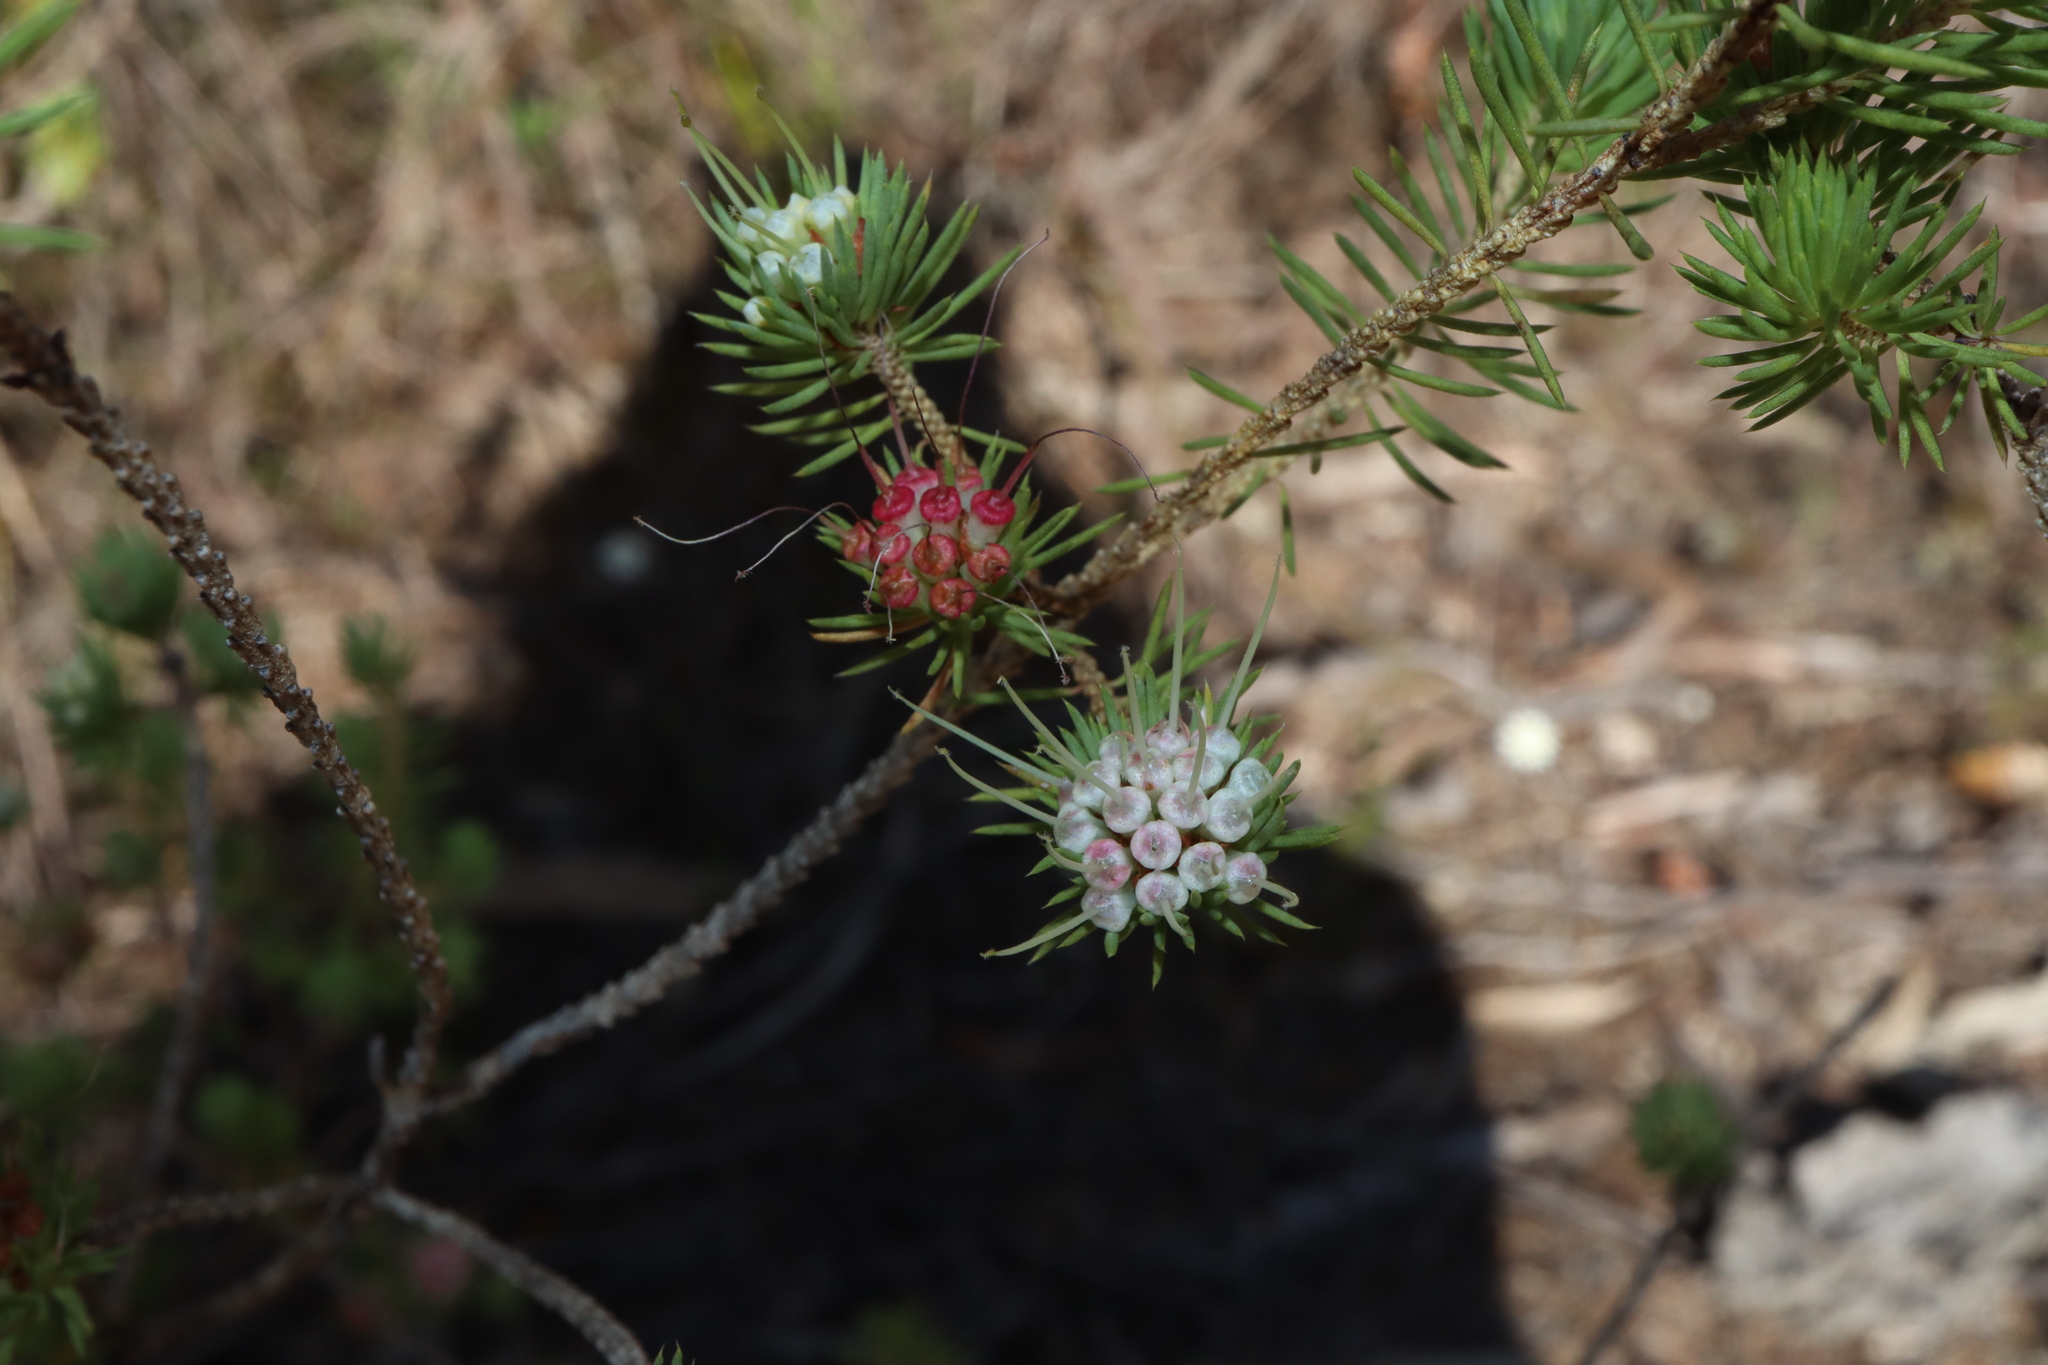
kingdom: Plantae
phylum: Tracheophyta
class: Magnoliopsida
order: Myrtales
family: Myrtaceae
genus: Darwinia
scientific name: Darwinia fascicularis
